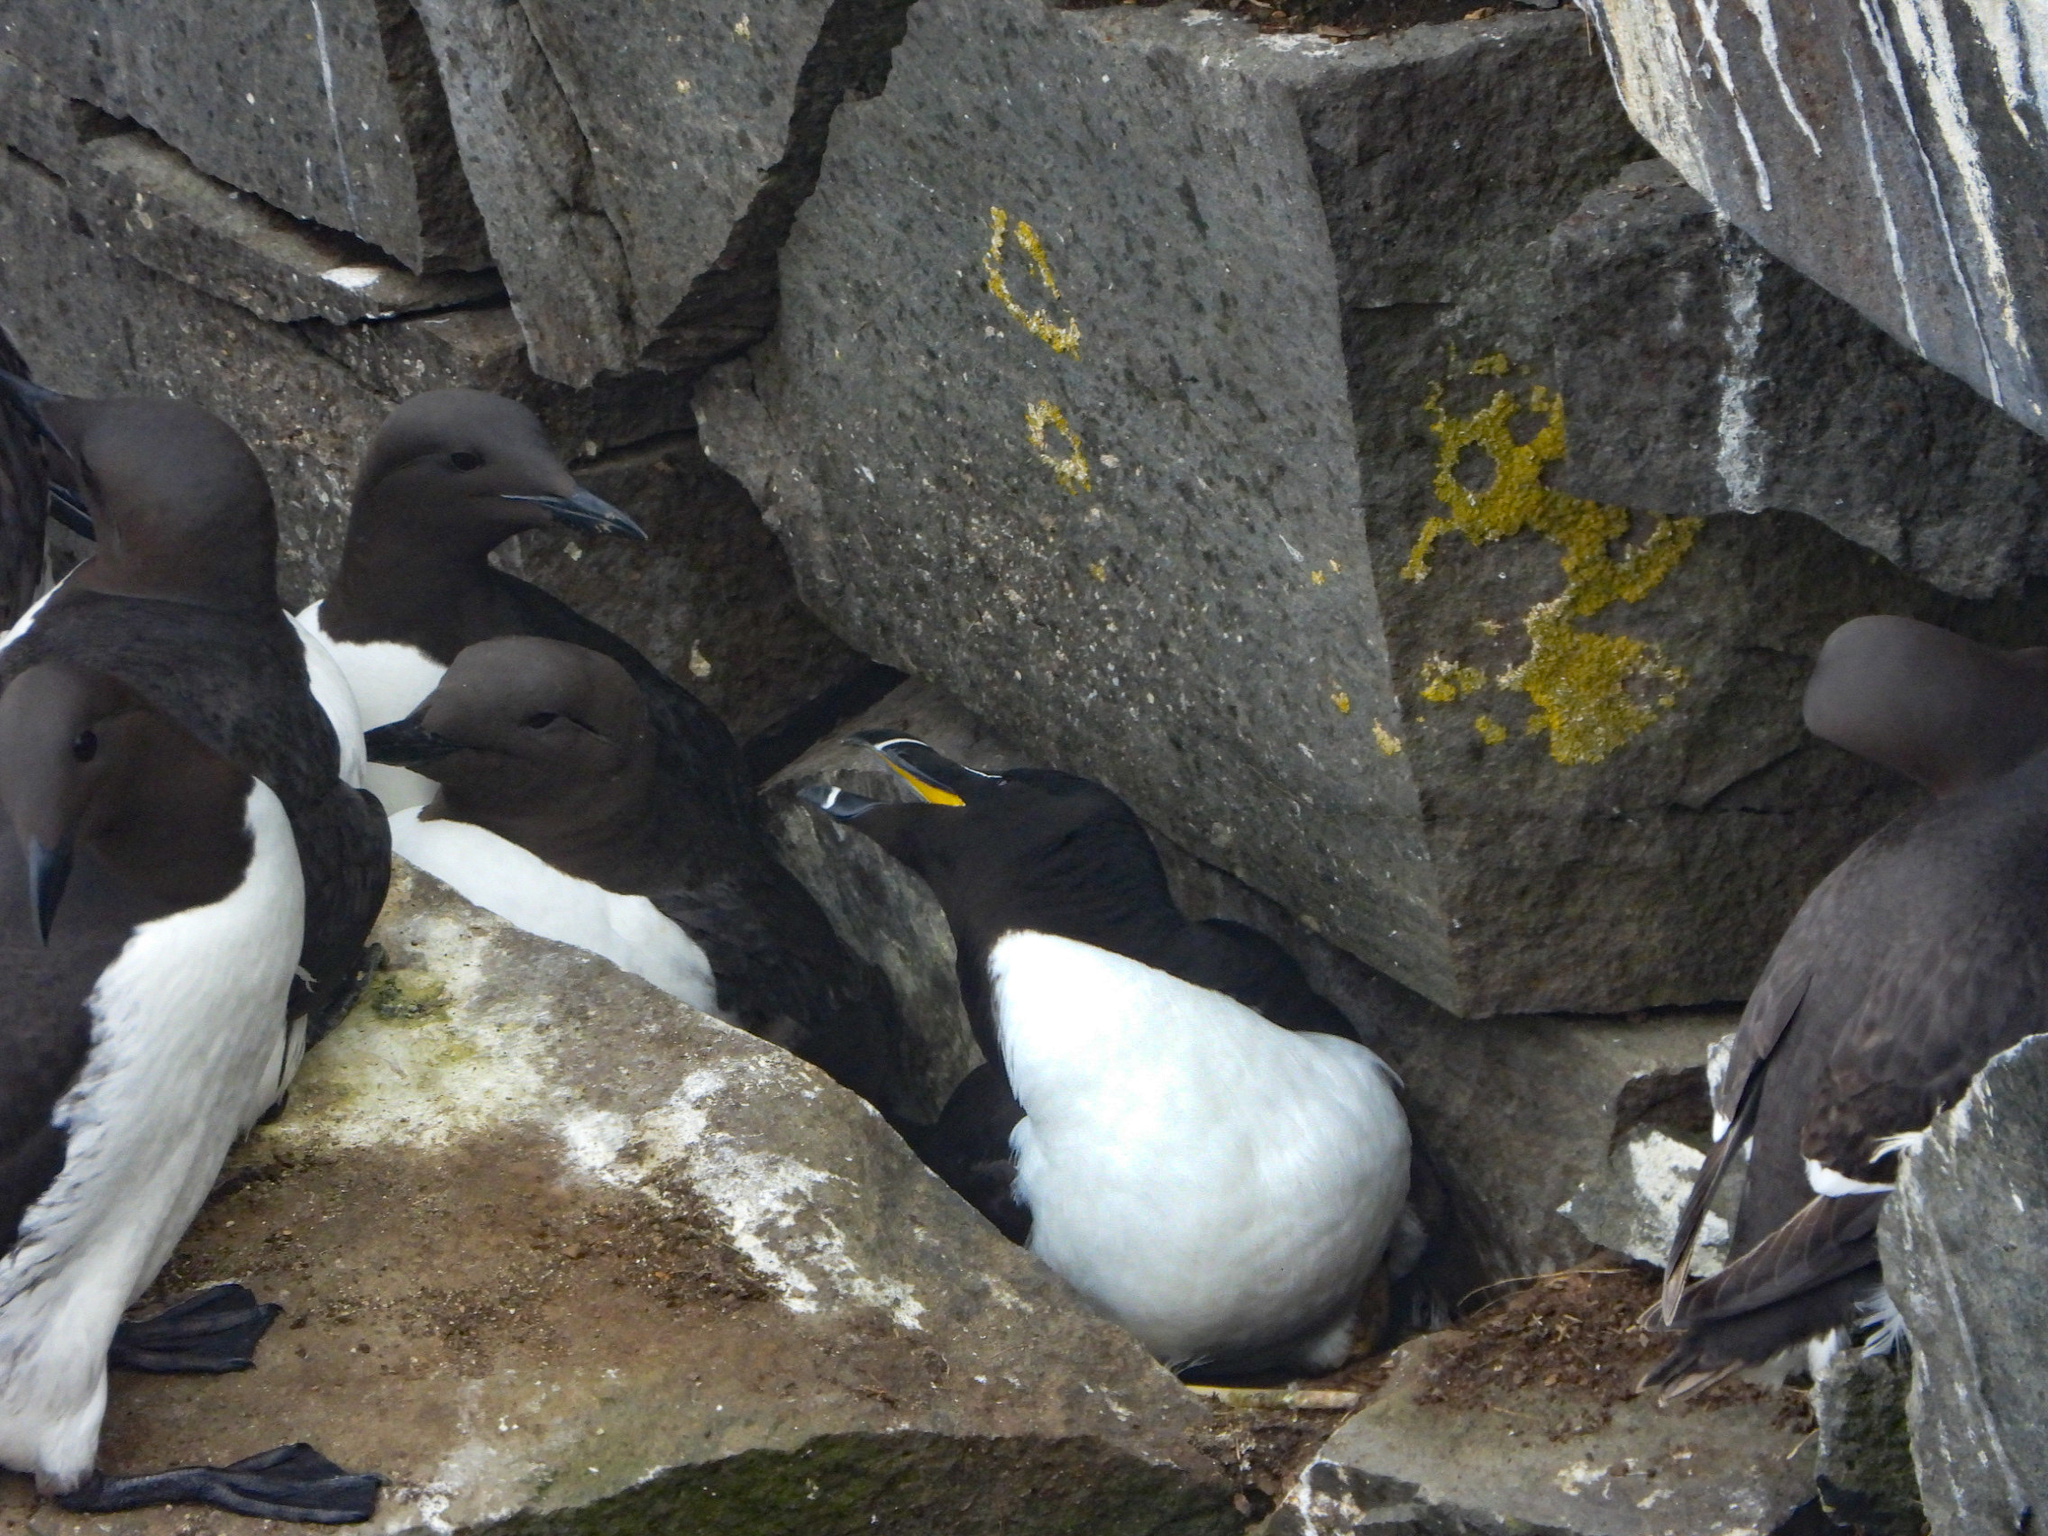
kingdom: Animalia
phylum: Chordata
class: Aves
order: Charadriiformes
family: Alcidae
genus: Alca
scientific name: Alca torda
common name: Razorbill
